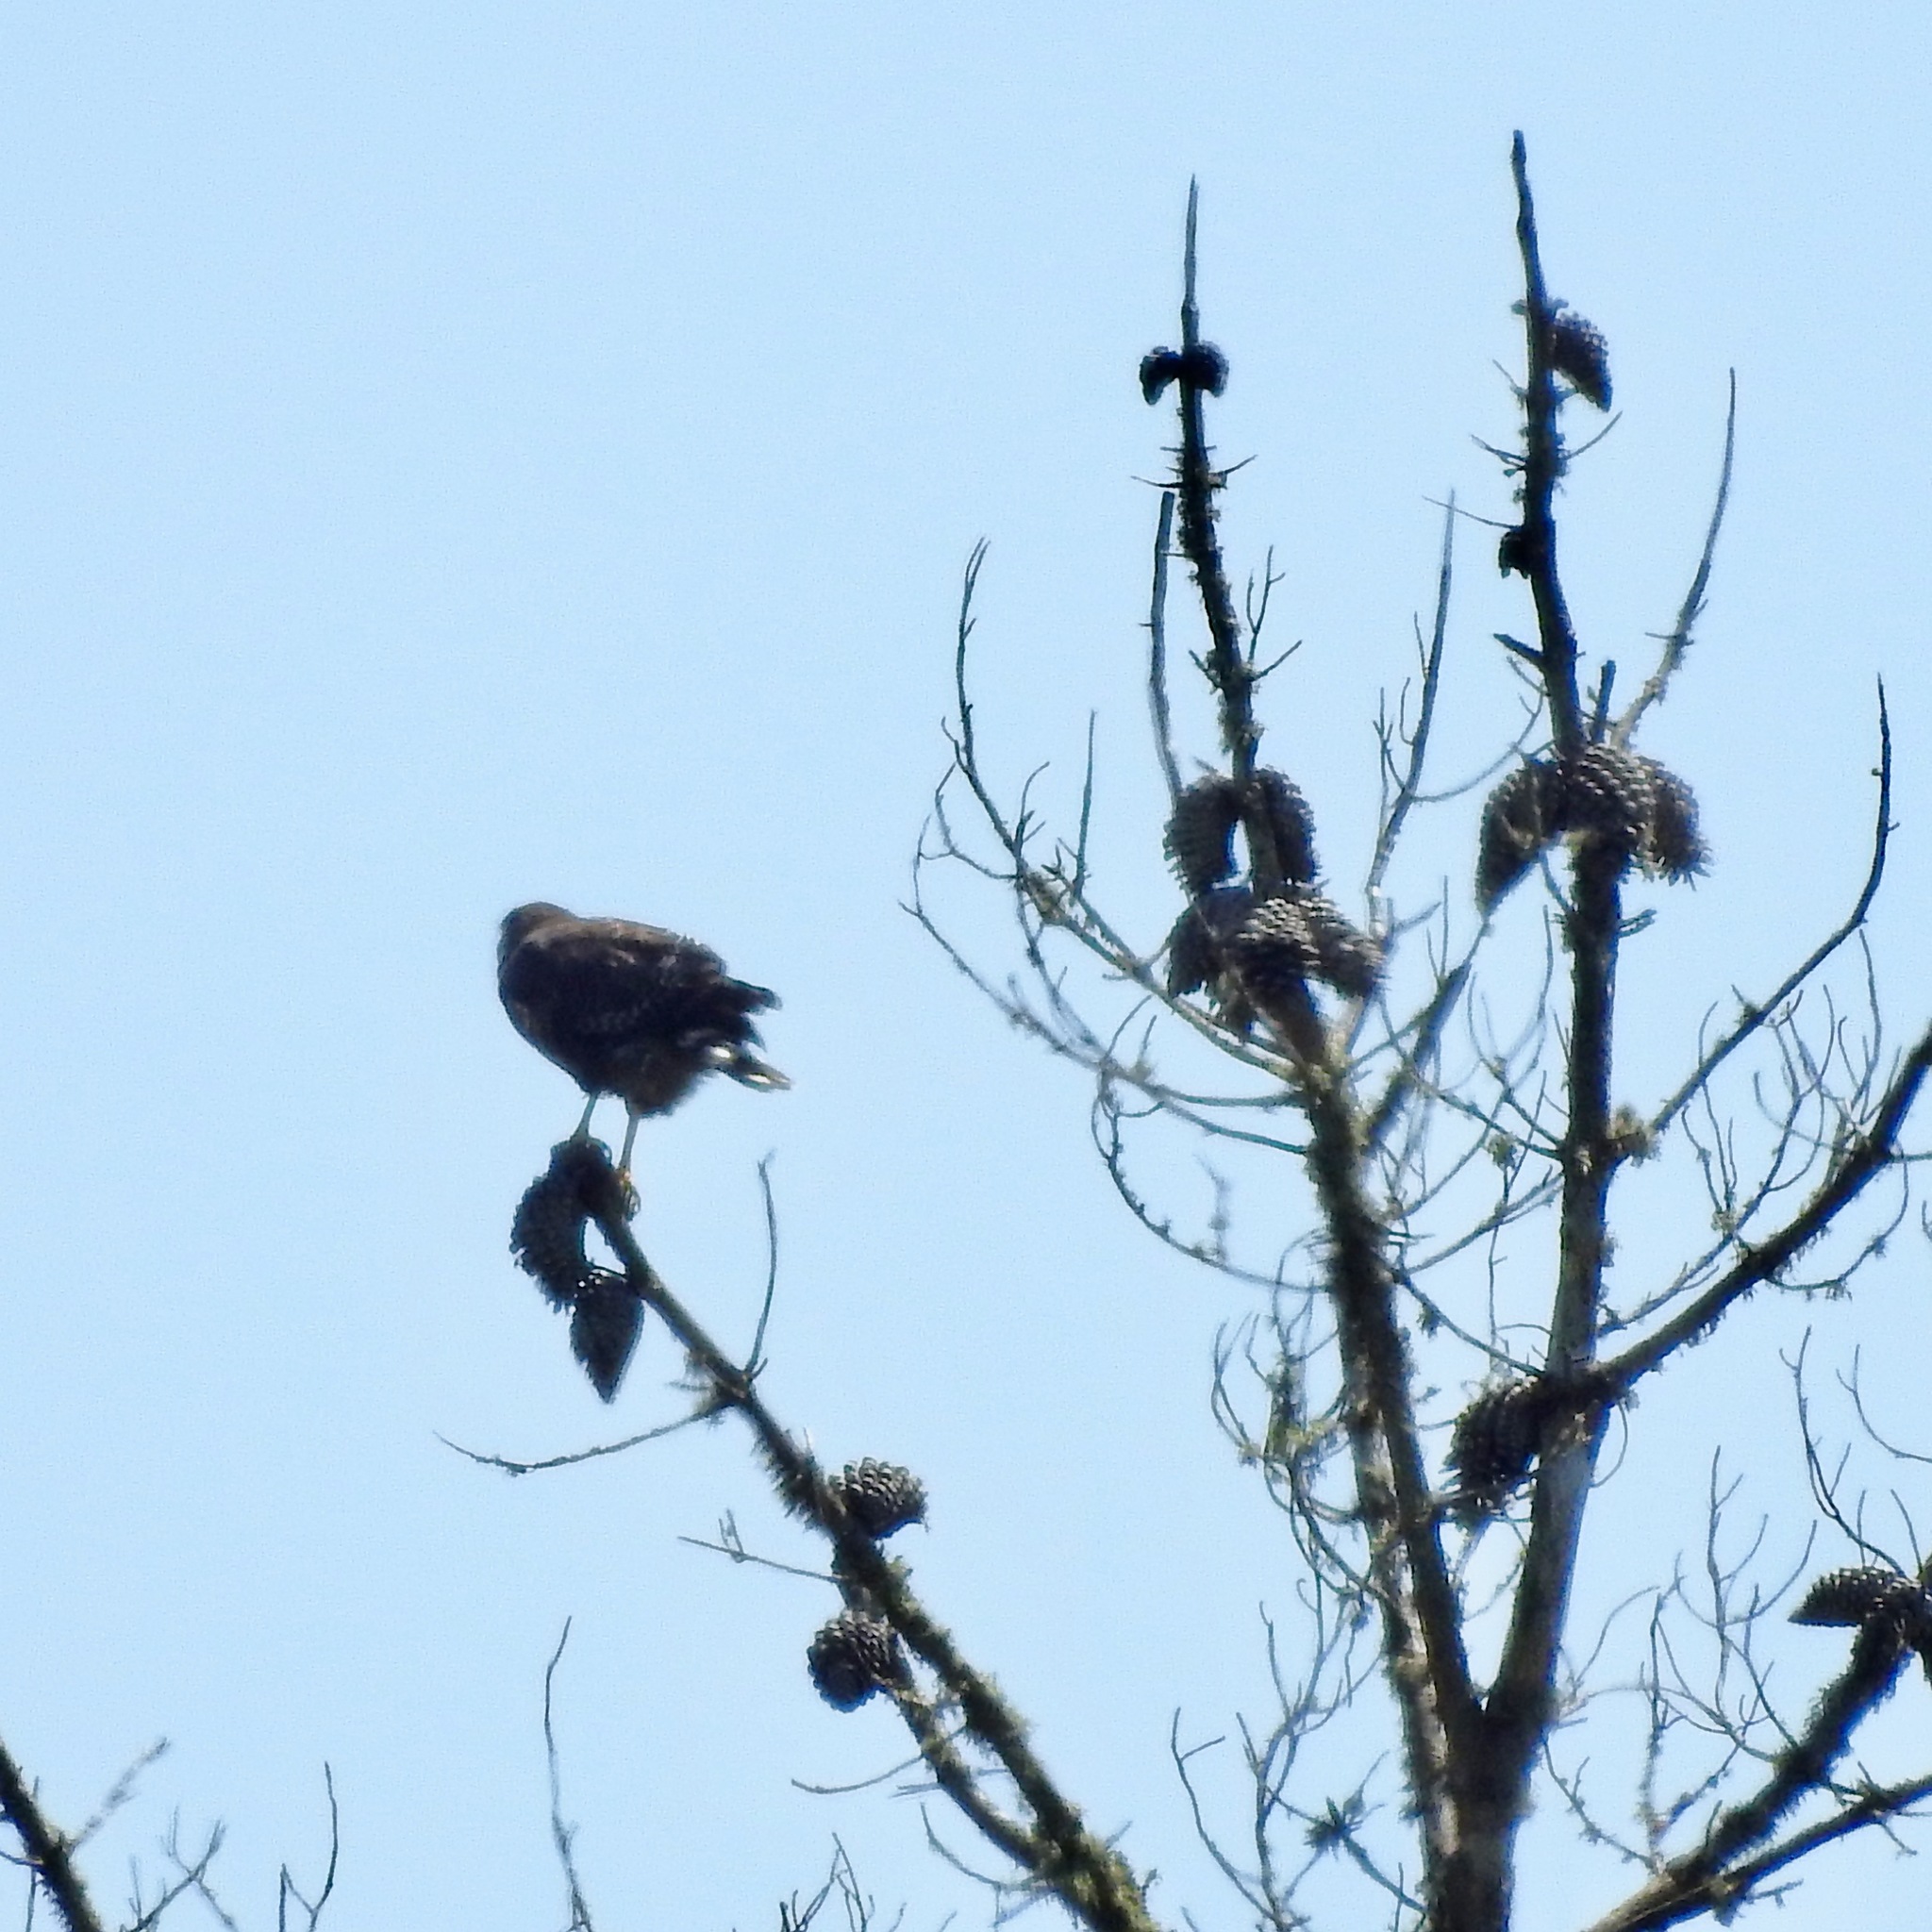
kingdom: Animalia
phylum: Chordata
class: Aves
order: Accipitriformes
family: Accipitridae
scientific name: Accipitridae
